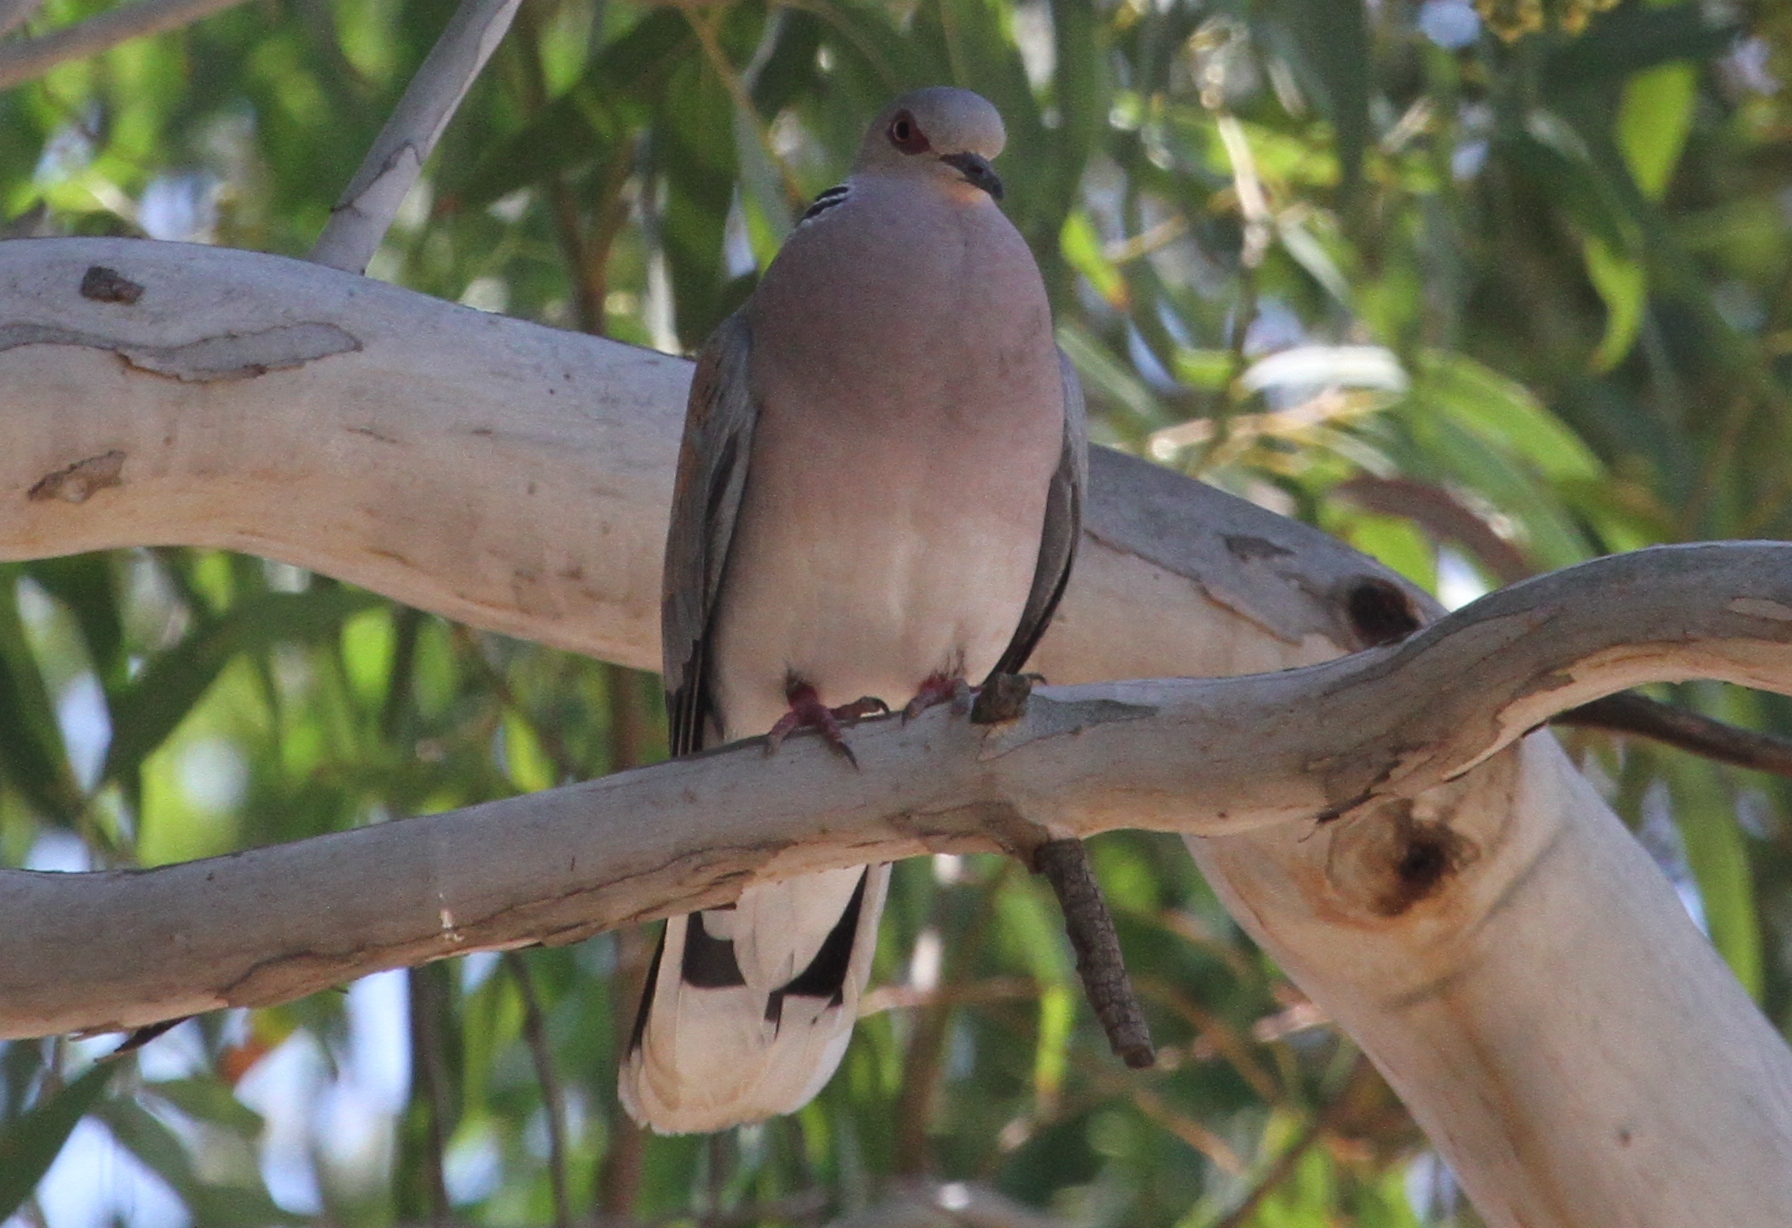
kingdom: Animalia
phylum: Chordata
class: Aves
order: Columbiformes
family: Columbidae
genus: Streptopelia
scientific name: Streptopelia turtur
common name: European turtle dove
